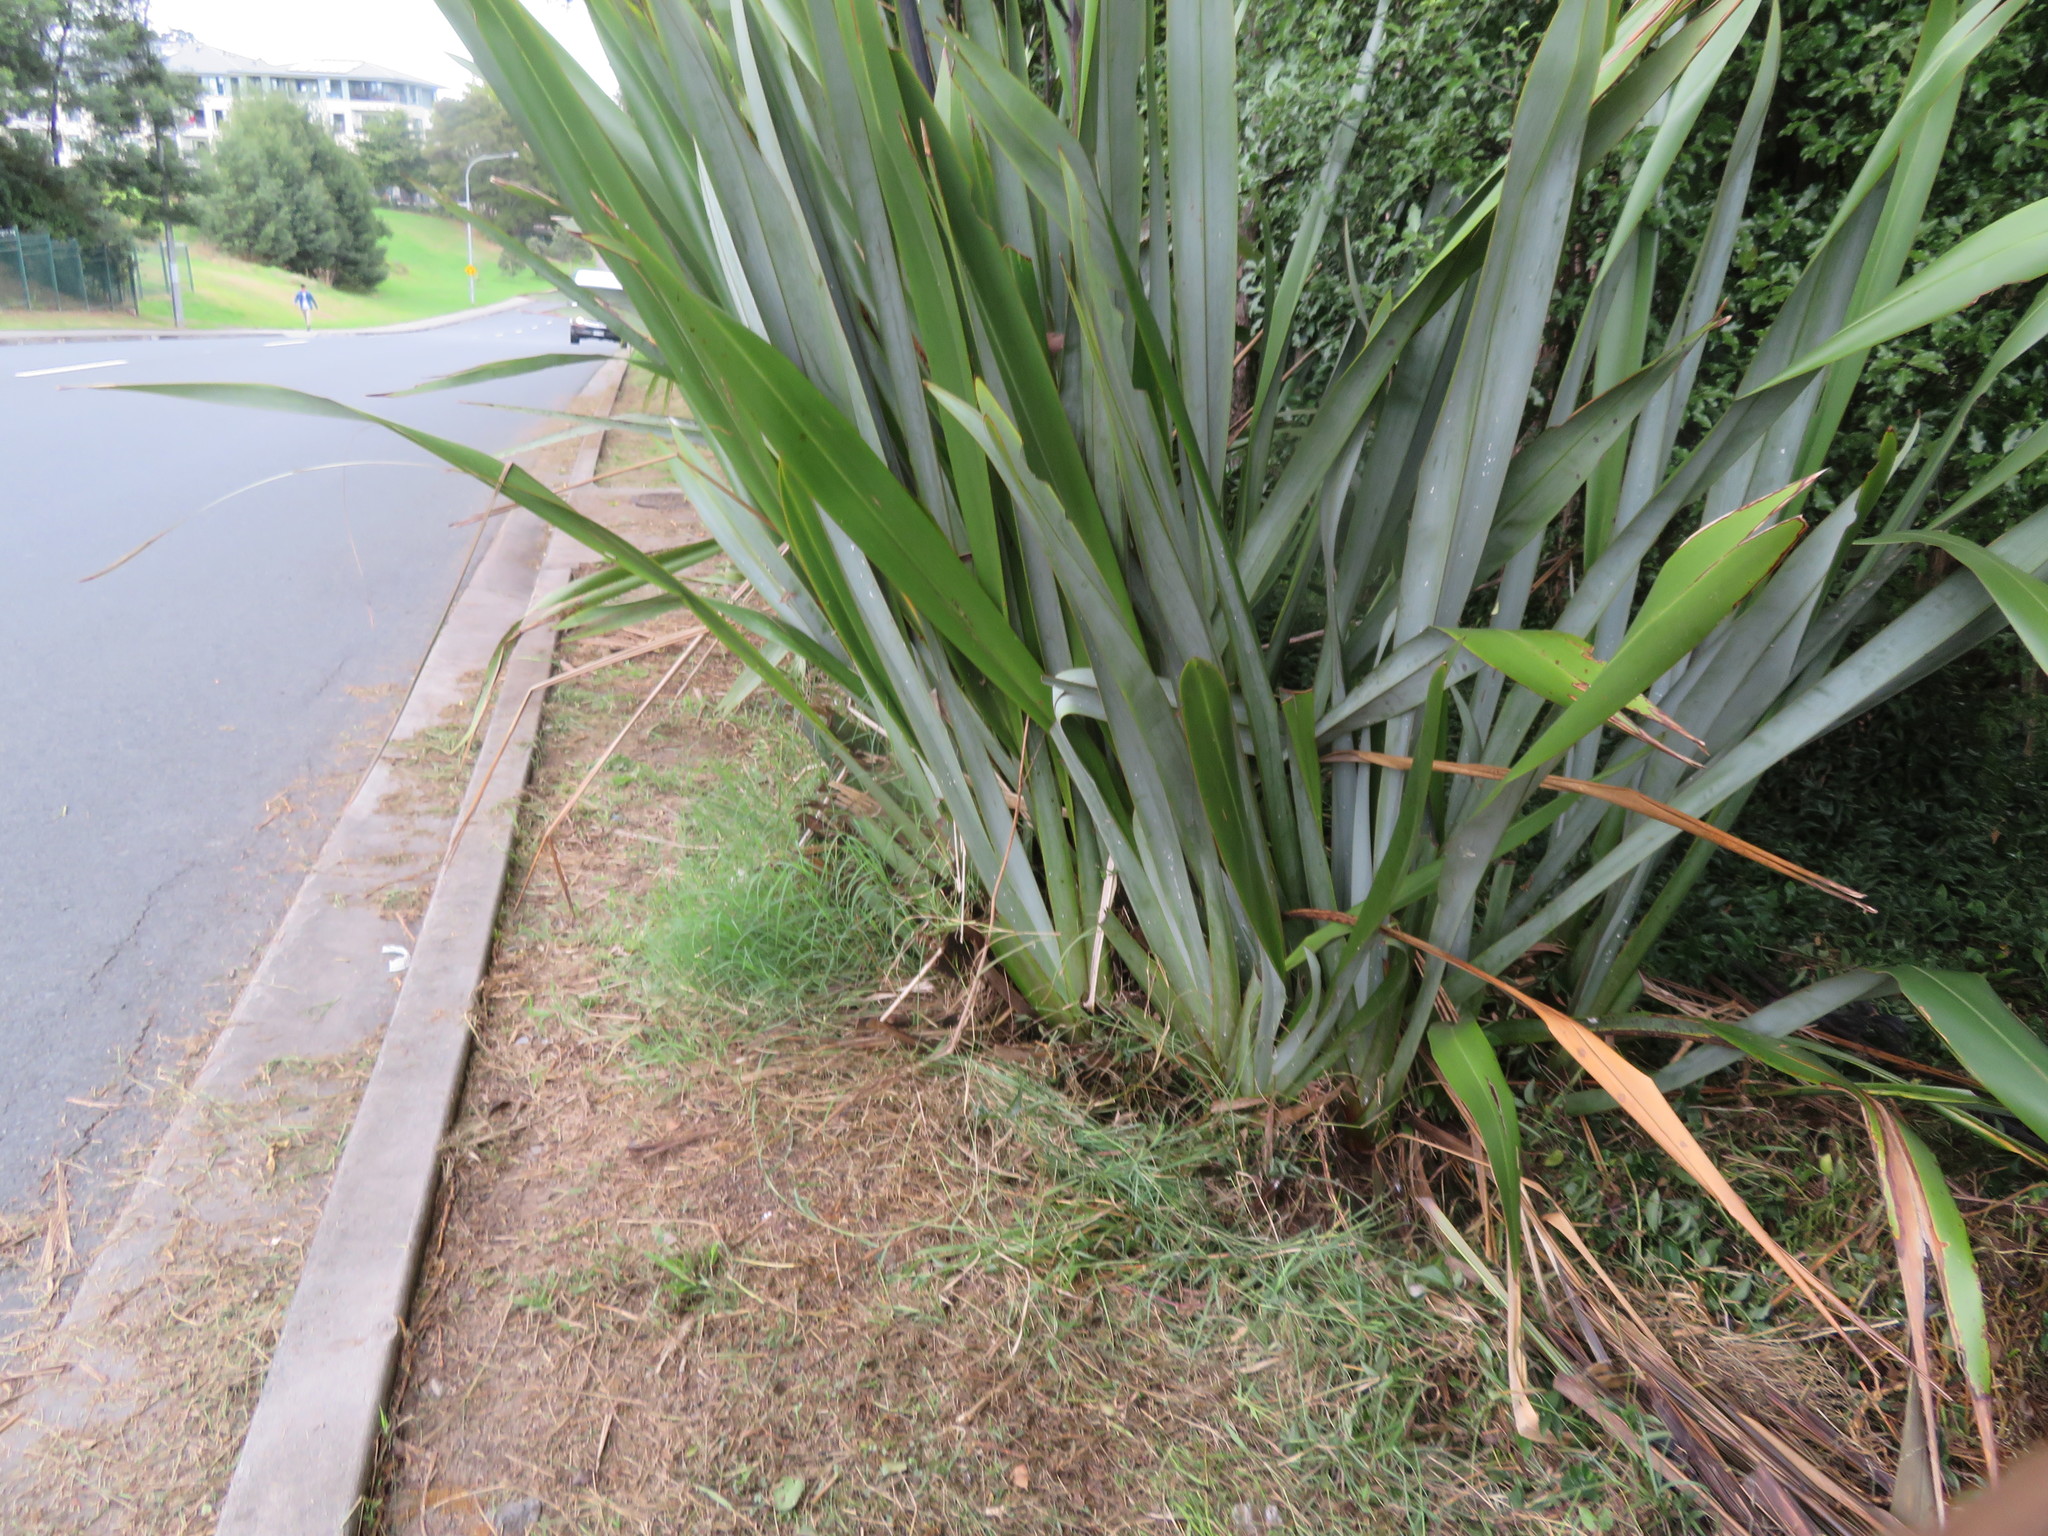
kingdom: Plantae
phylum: Tracheophyta
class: Liliopsida
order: Poales
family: Poaceae
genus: Cynodon
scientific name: Cynodon dactylon
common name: Bermuda grass
